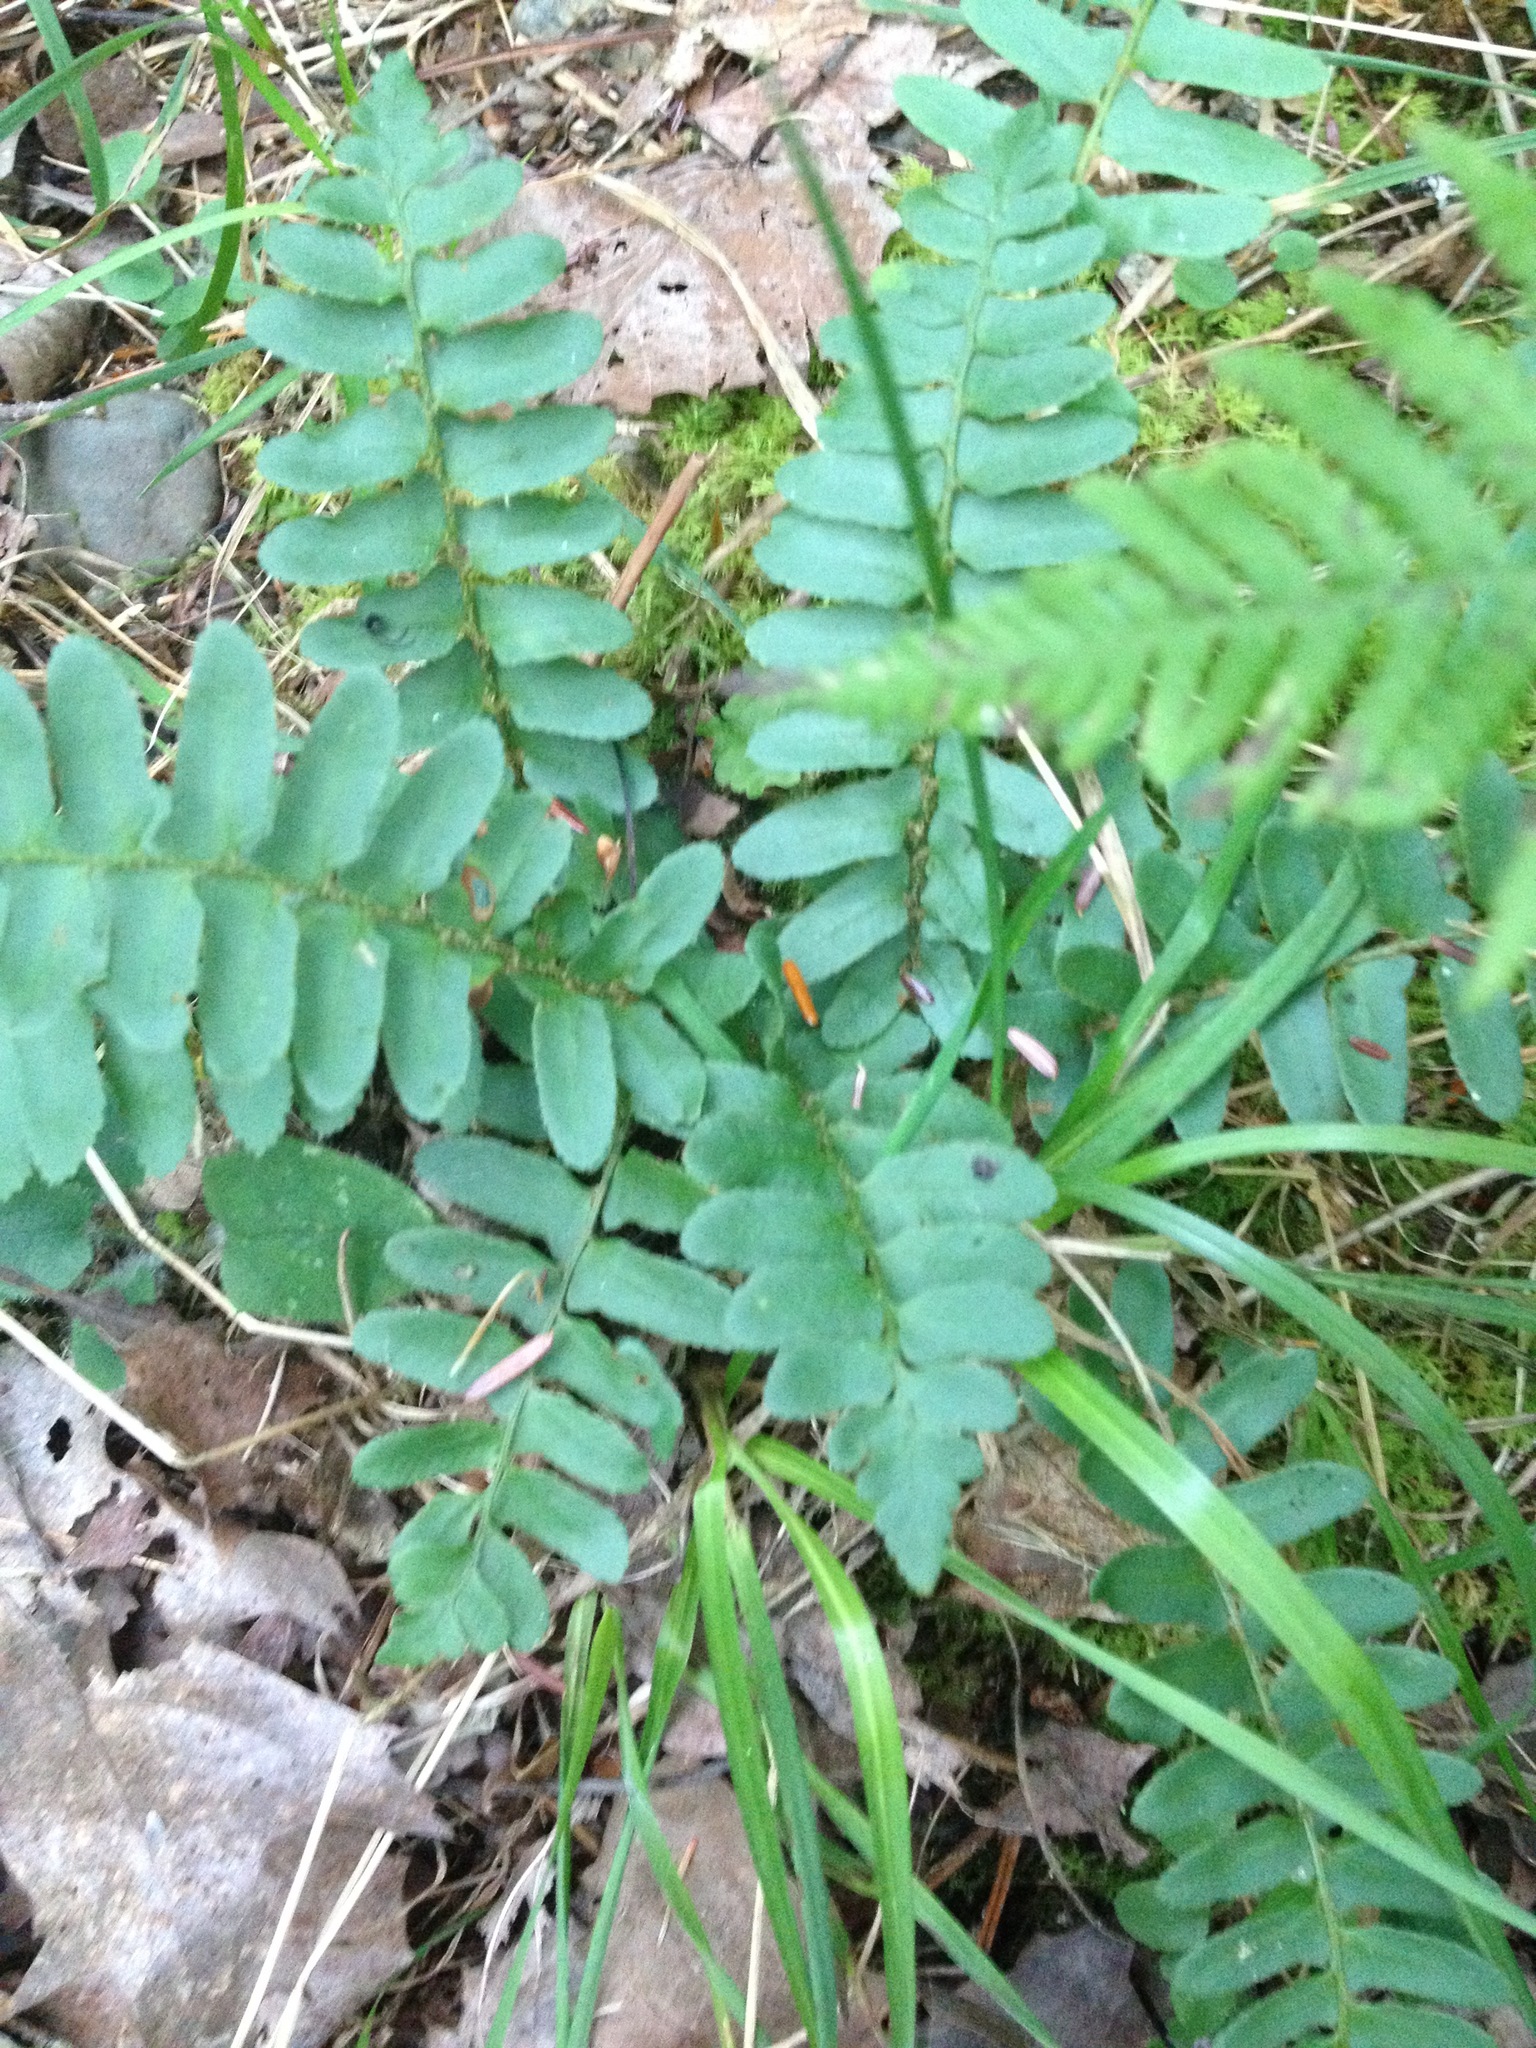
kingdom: Plantae
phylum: Tracheophyta
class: Polypodiopsida
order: Polypodiales
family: Dryopteridaceae
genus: Polystichum
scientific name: Polystichum acrostichoides
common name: Christmas fern
